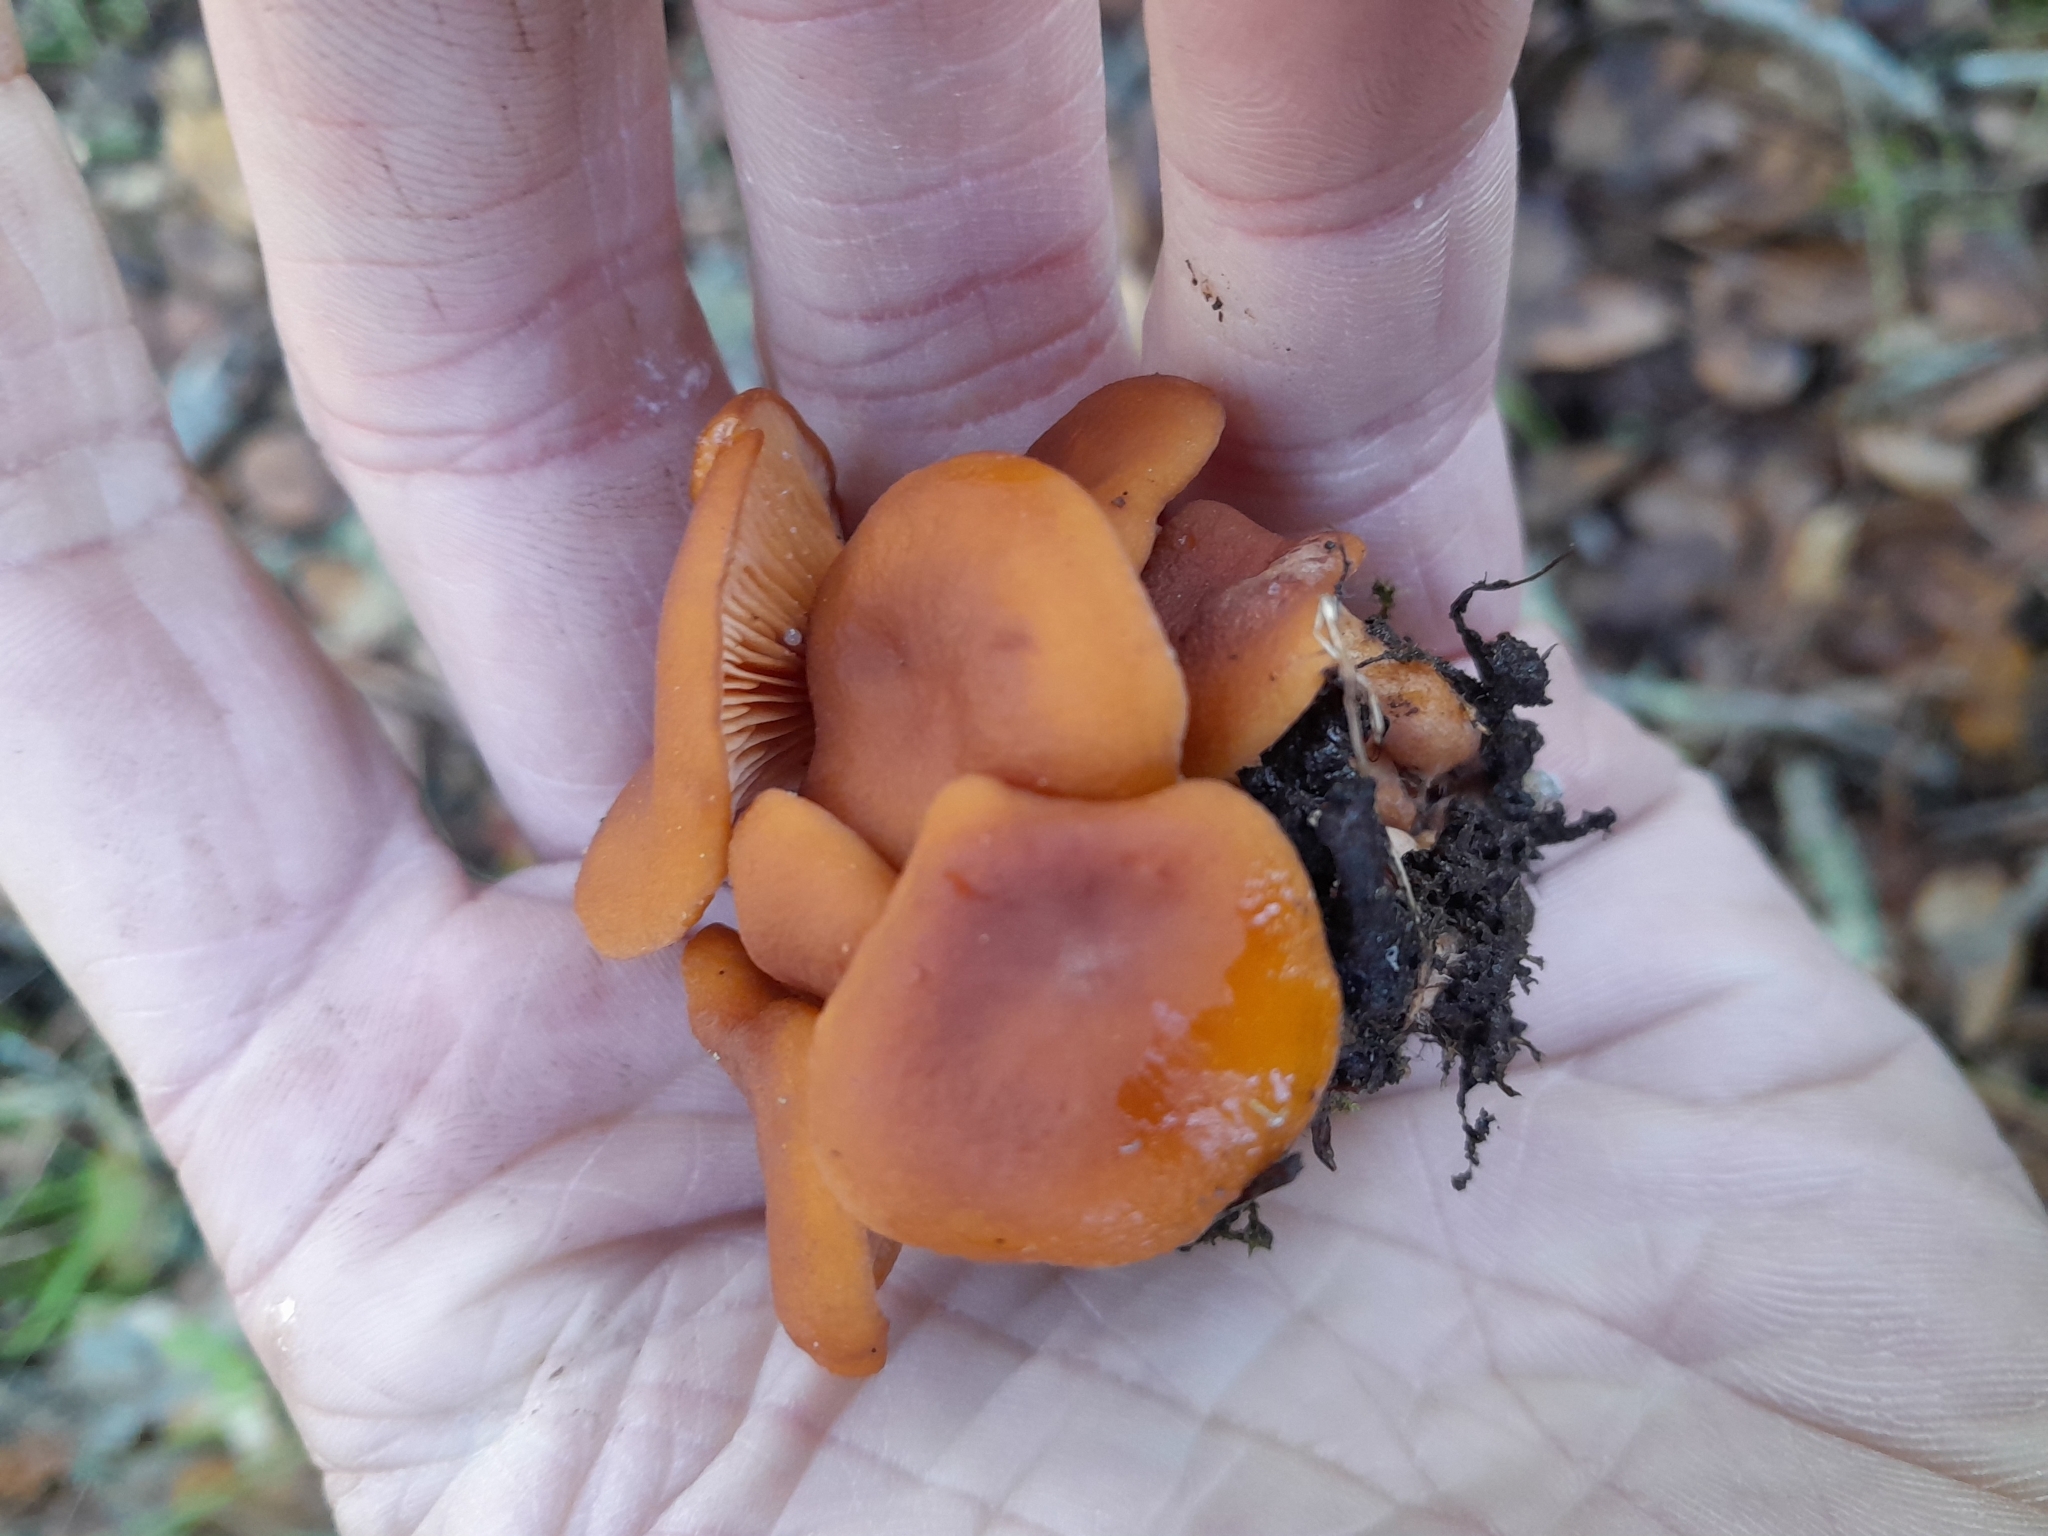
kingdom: Fungi
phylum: Basidiomycota
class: Agaricomycetes
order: Russulales
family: Russulaceae
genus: Lactarius
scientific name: Lactarius rubidus
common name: Candy cap
